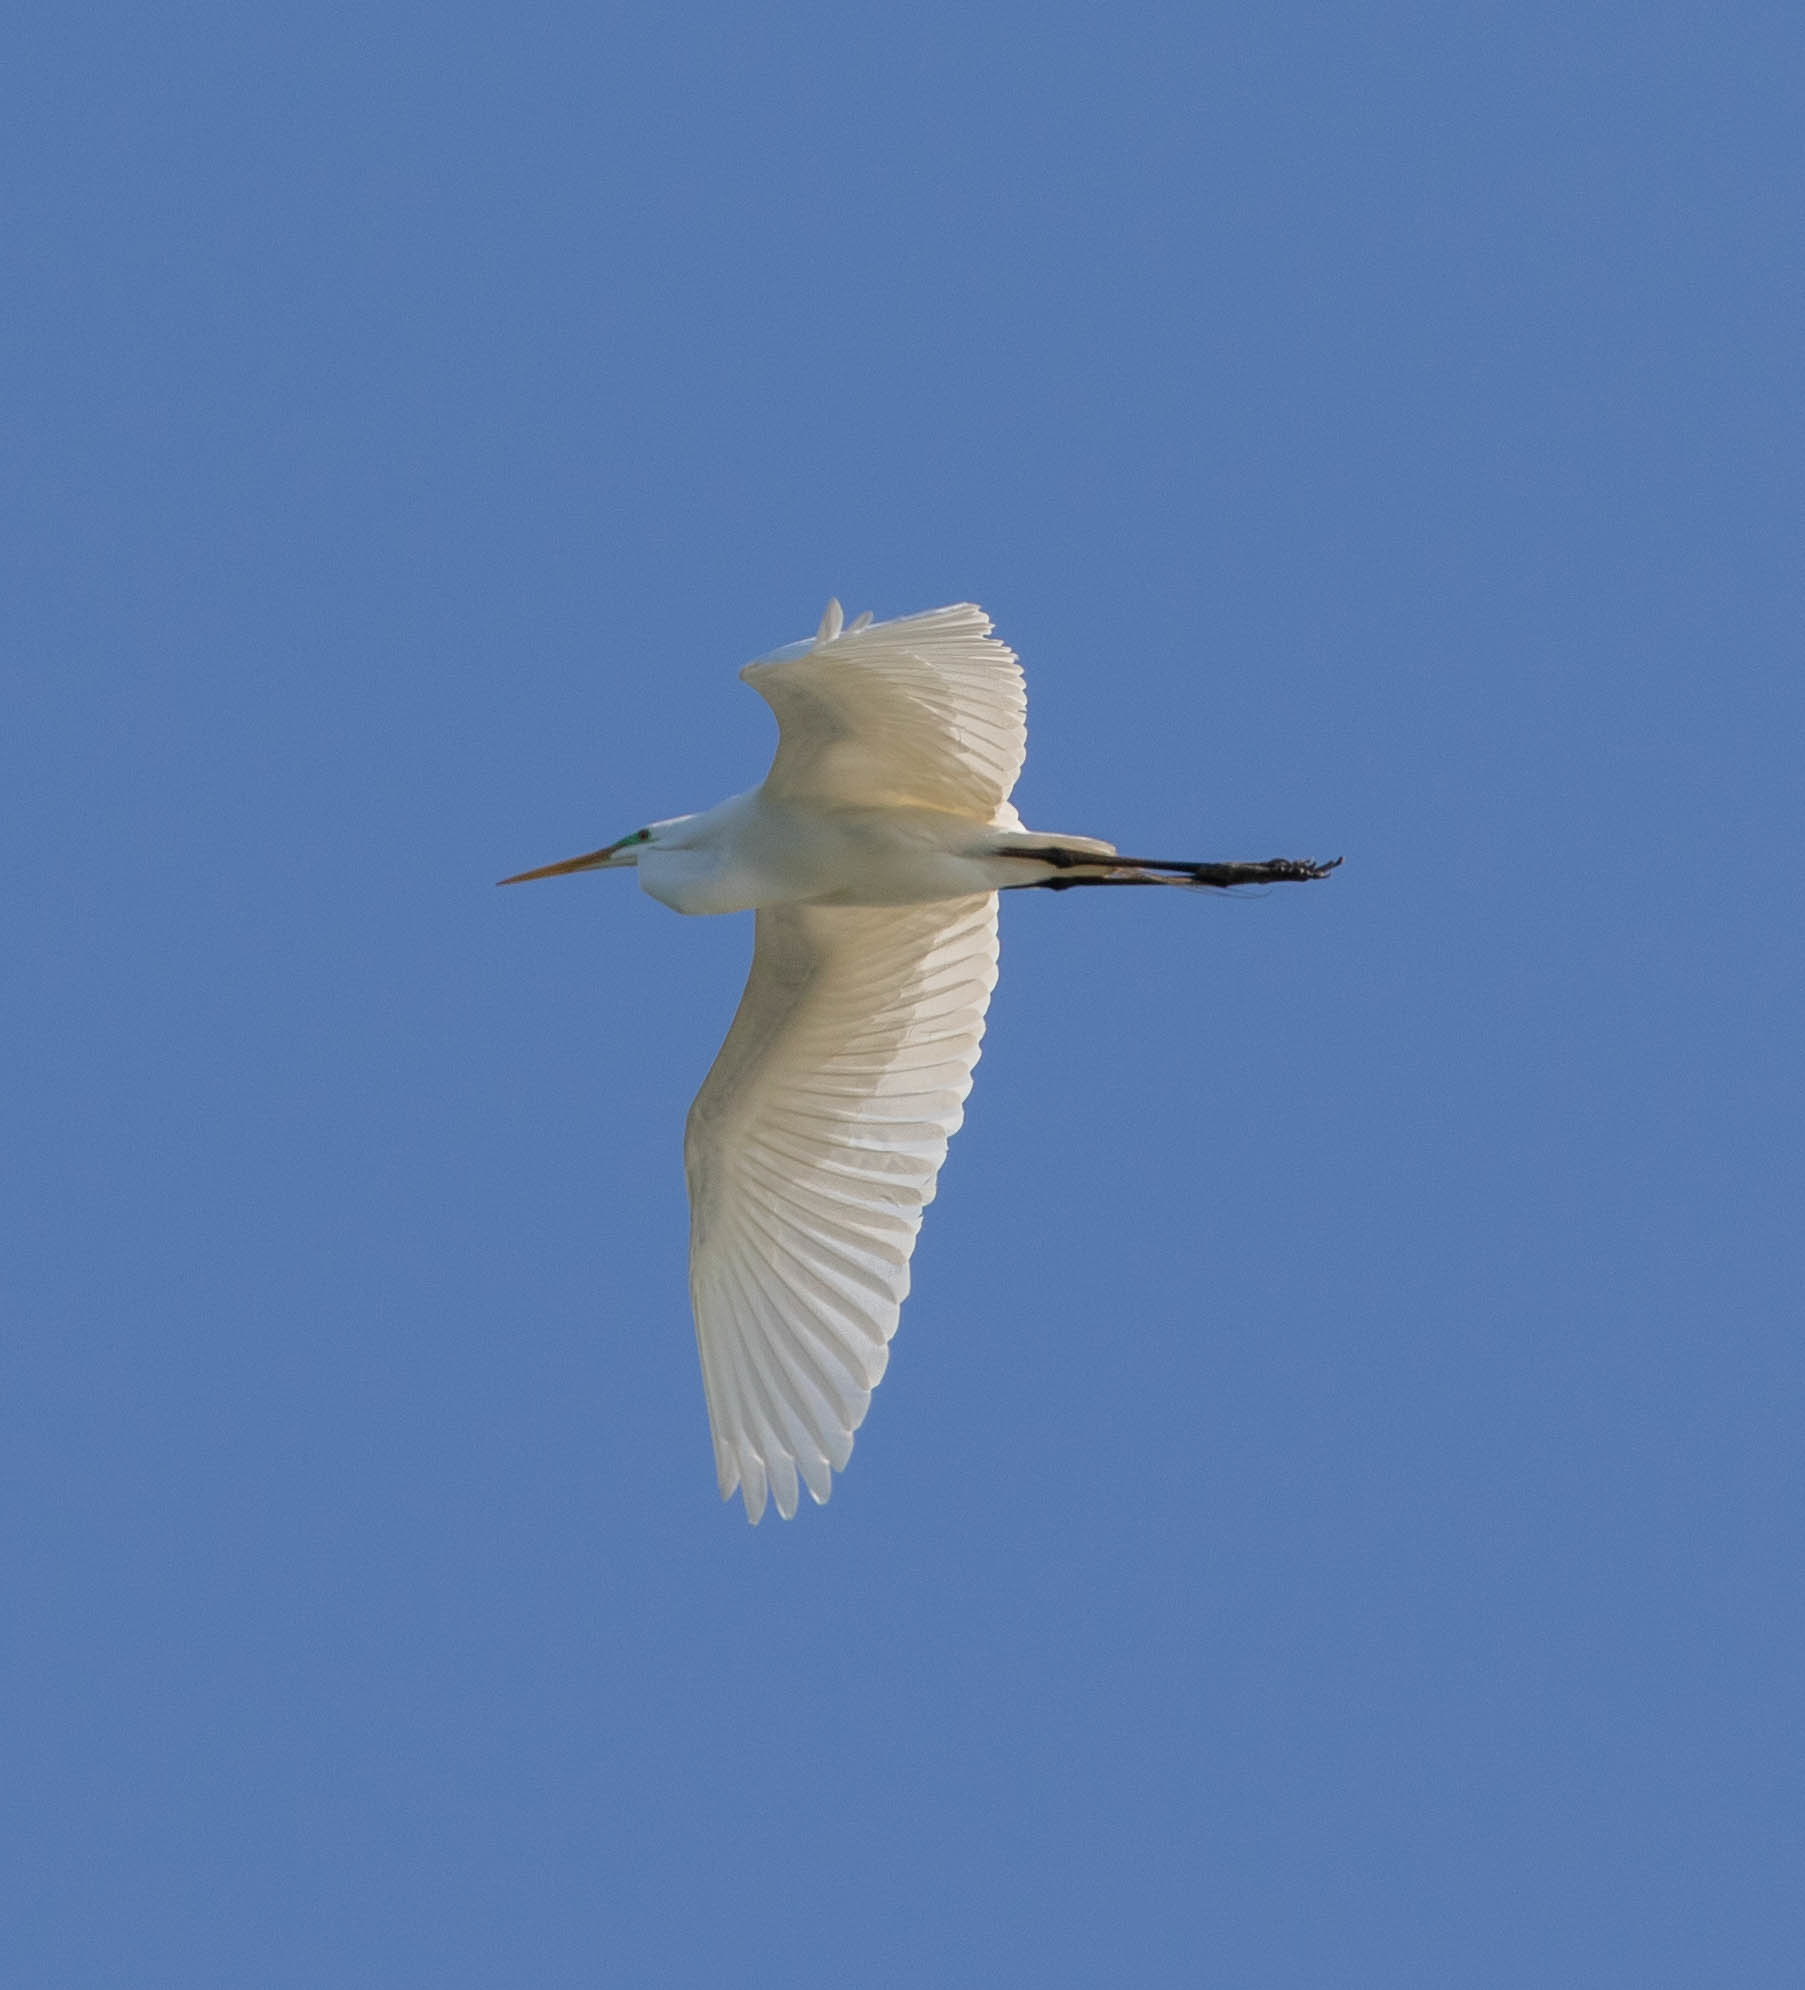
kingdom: Animalia
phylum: Chordata
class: Aves
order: Pelecaniformes
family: Ardeidae
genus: Ardea
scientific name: Ardea alba
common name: Great egret
